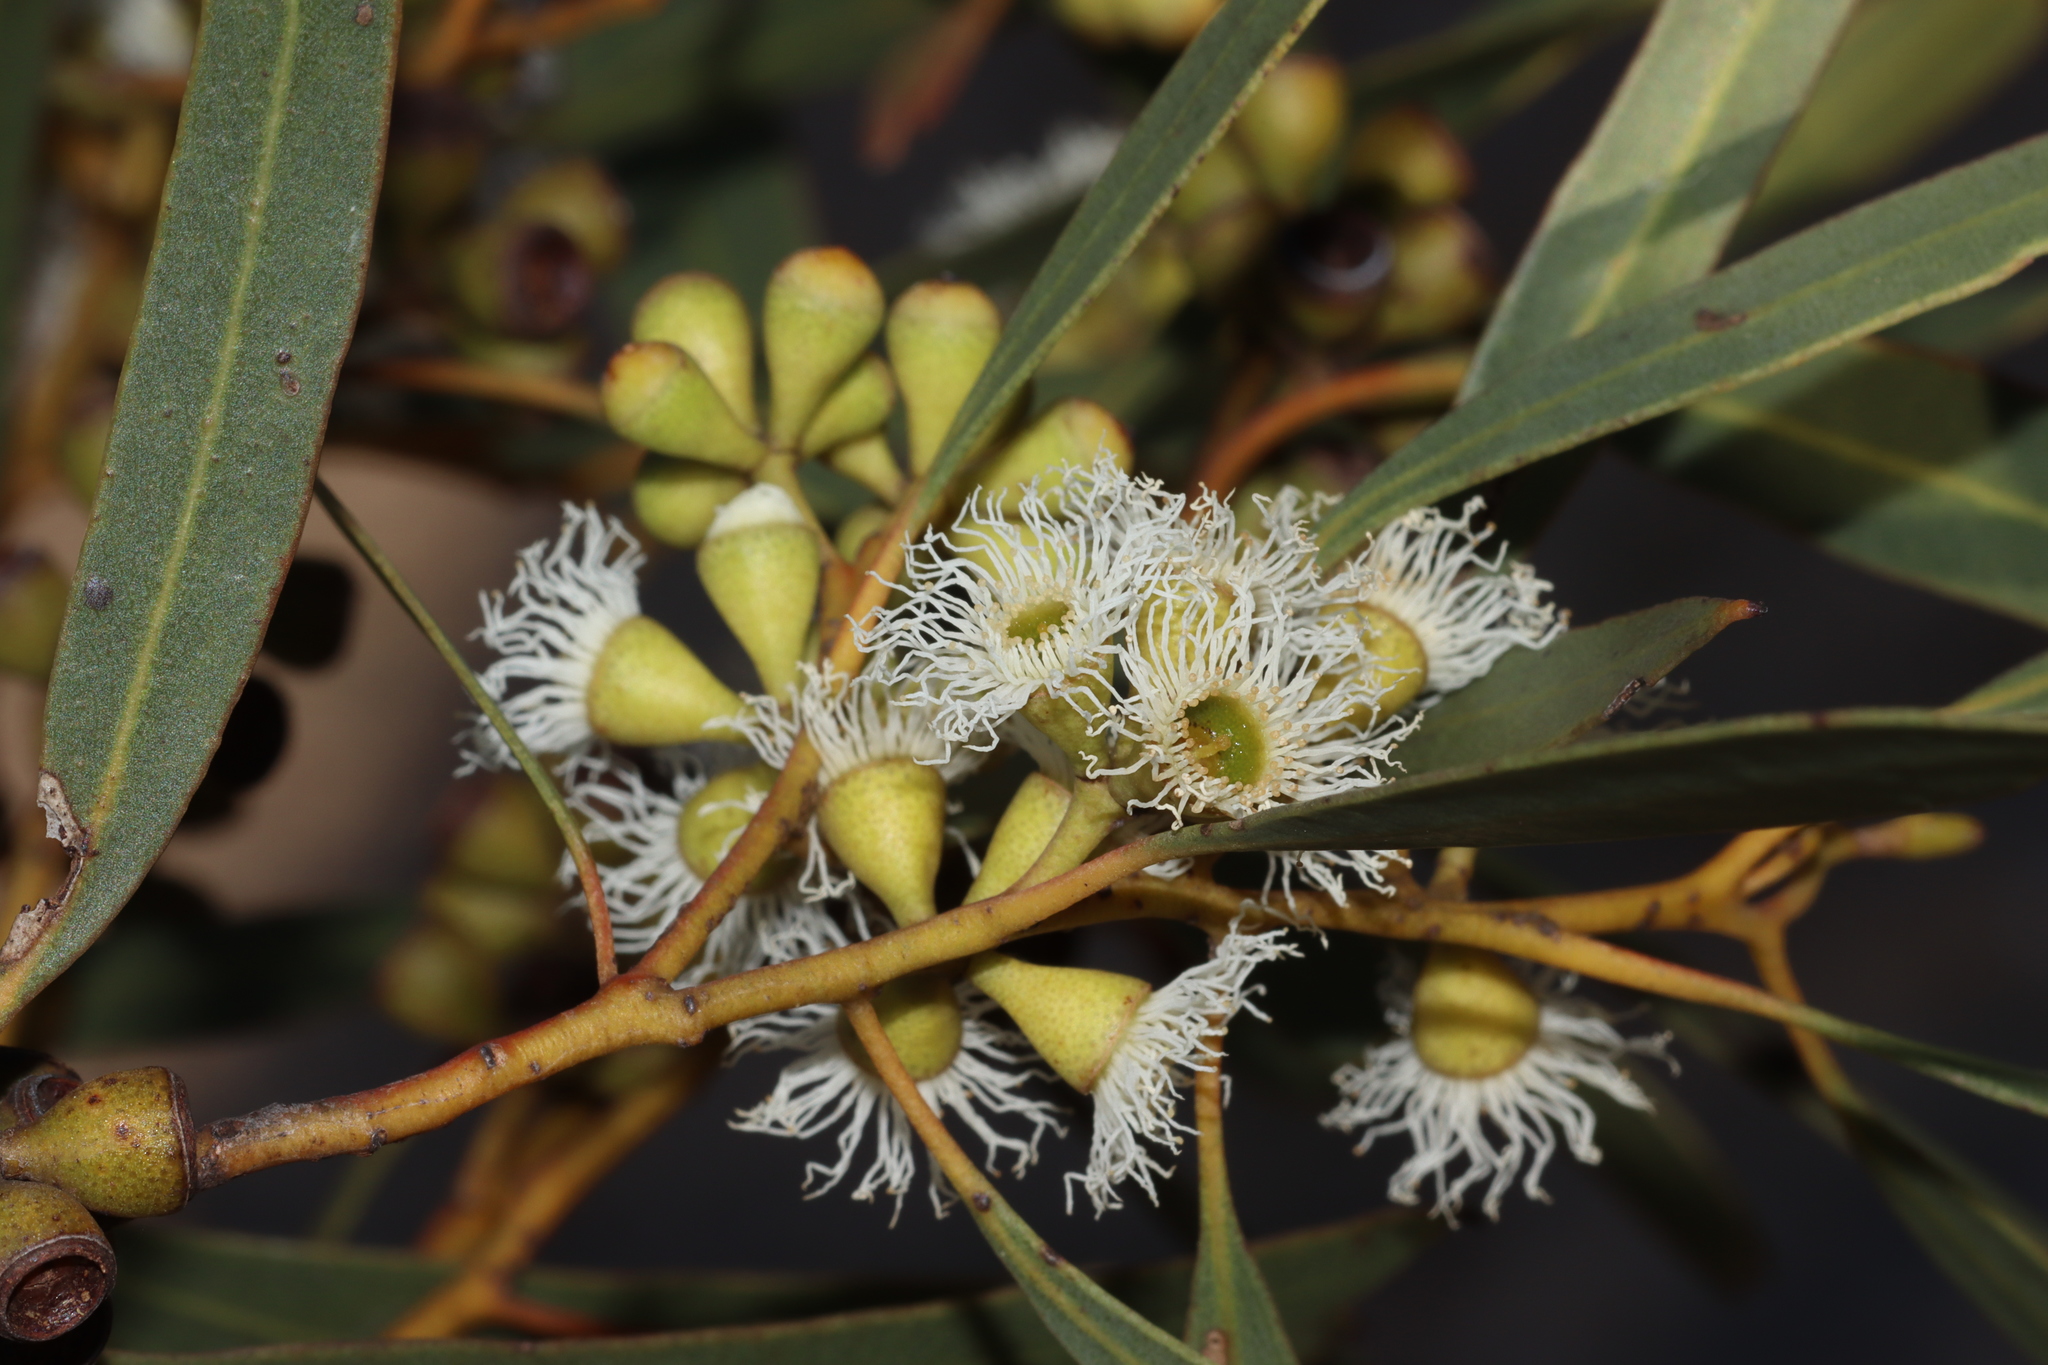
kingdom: Plantae
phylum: Tracheophyta
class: Magnoliopsida
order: Myrtales
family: Myrtaceae
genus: Eucalyptus
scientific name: Eucalyptus gracilis
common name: White mallee
